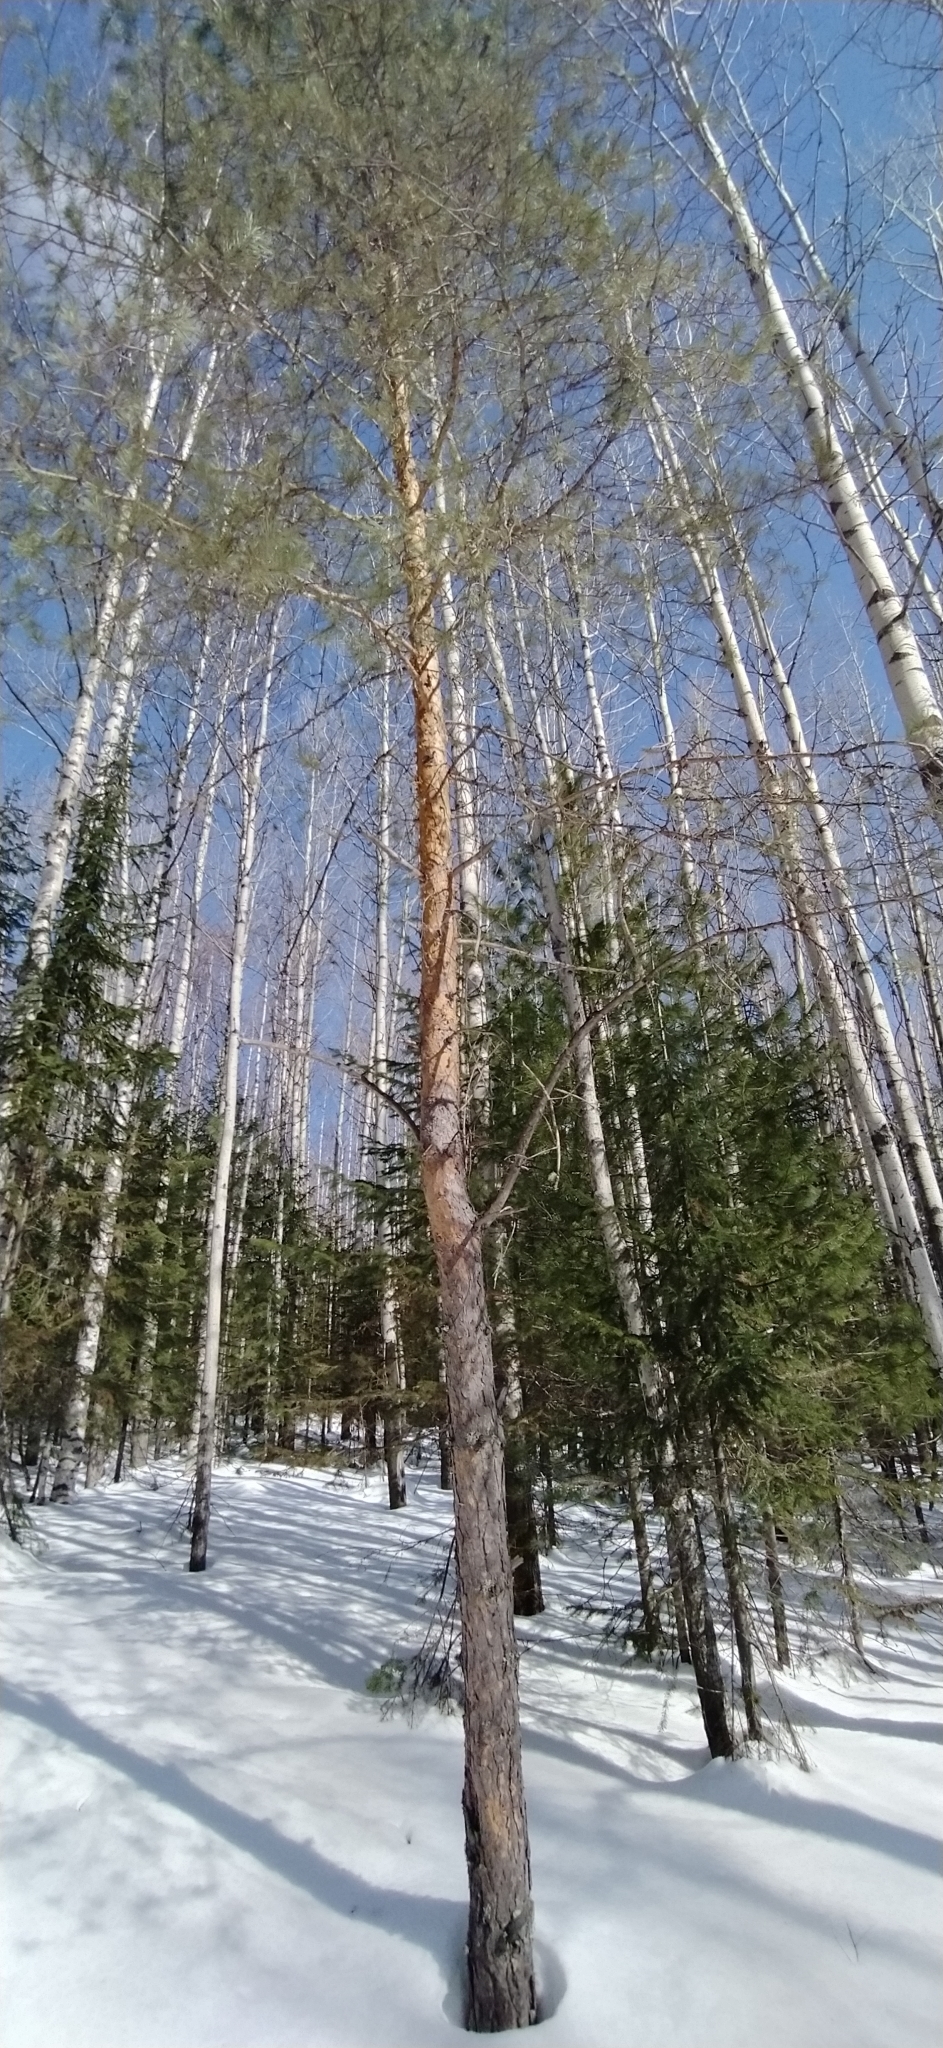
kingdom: Plantae
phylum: Tracheophyta
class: Pinopsida
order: Pinales
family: Pinaceae
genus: Pinus
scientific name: Pinus sylvestris
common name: Scots pine
